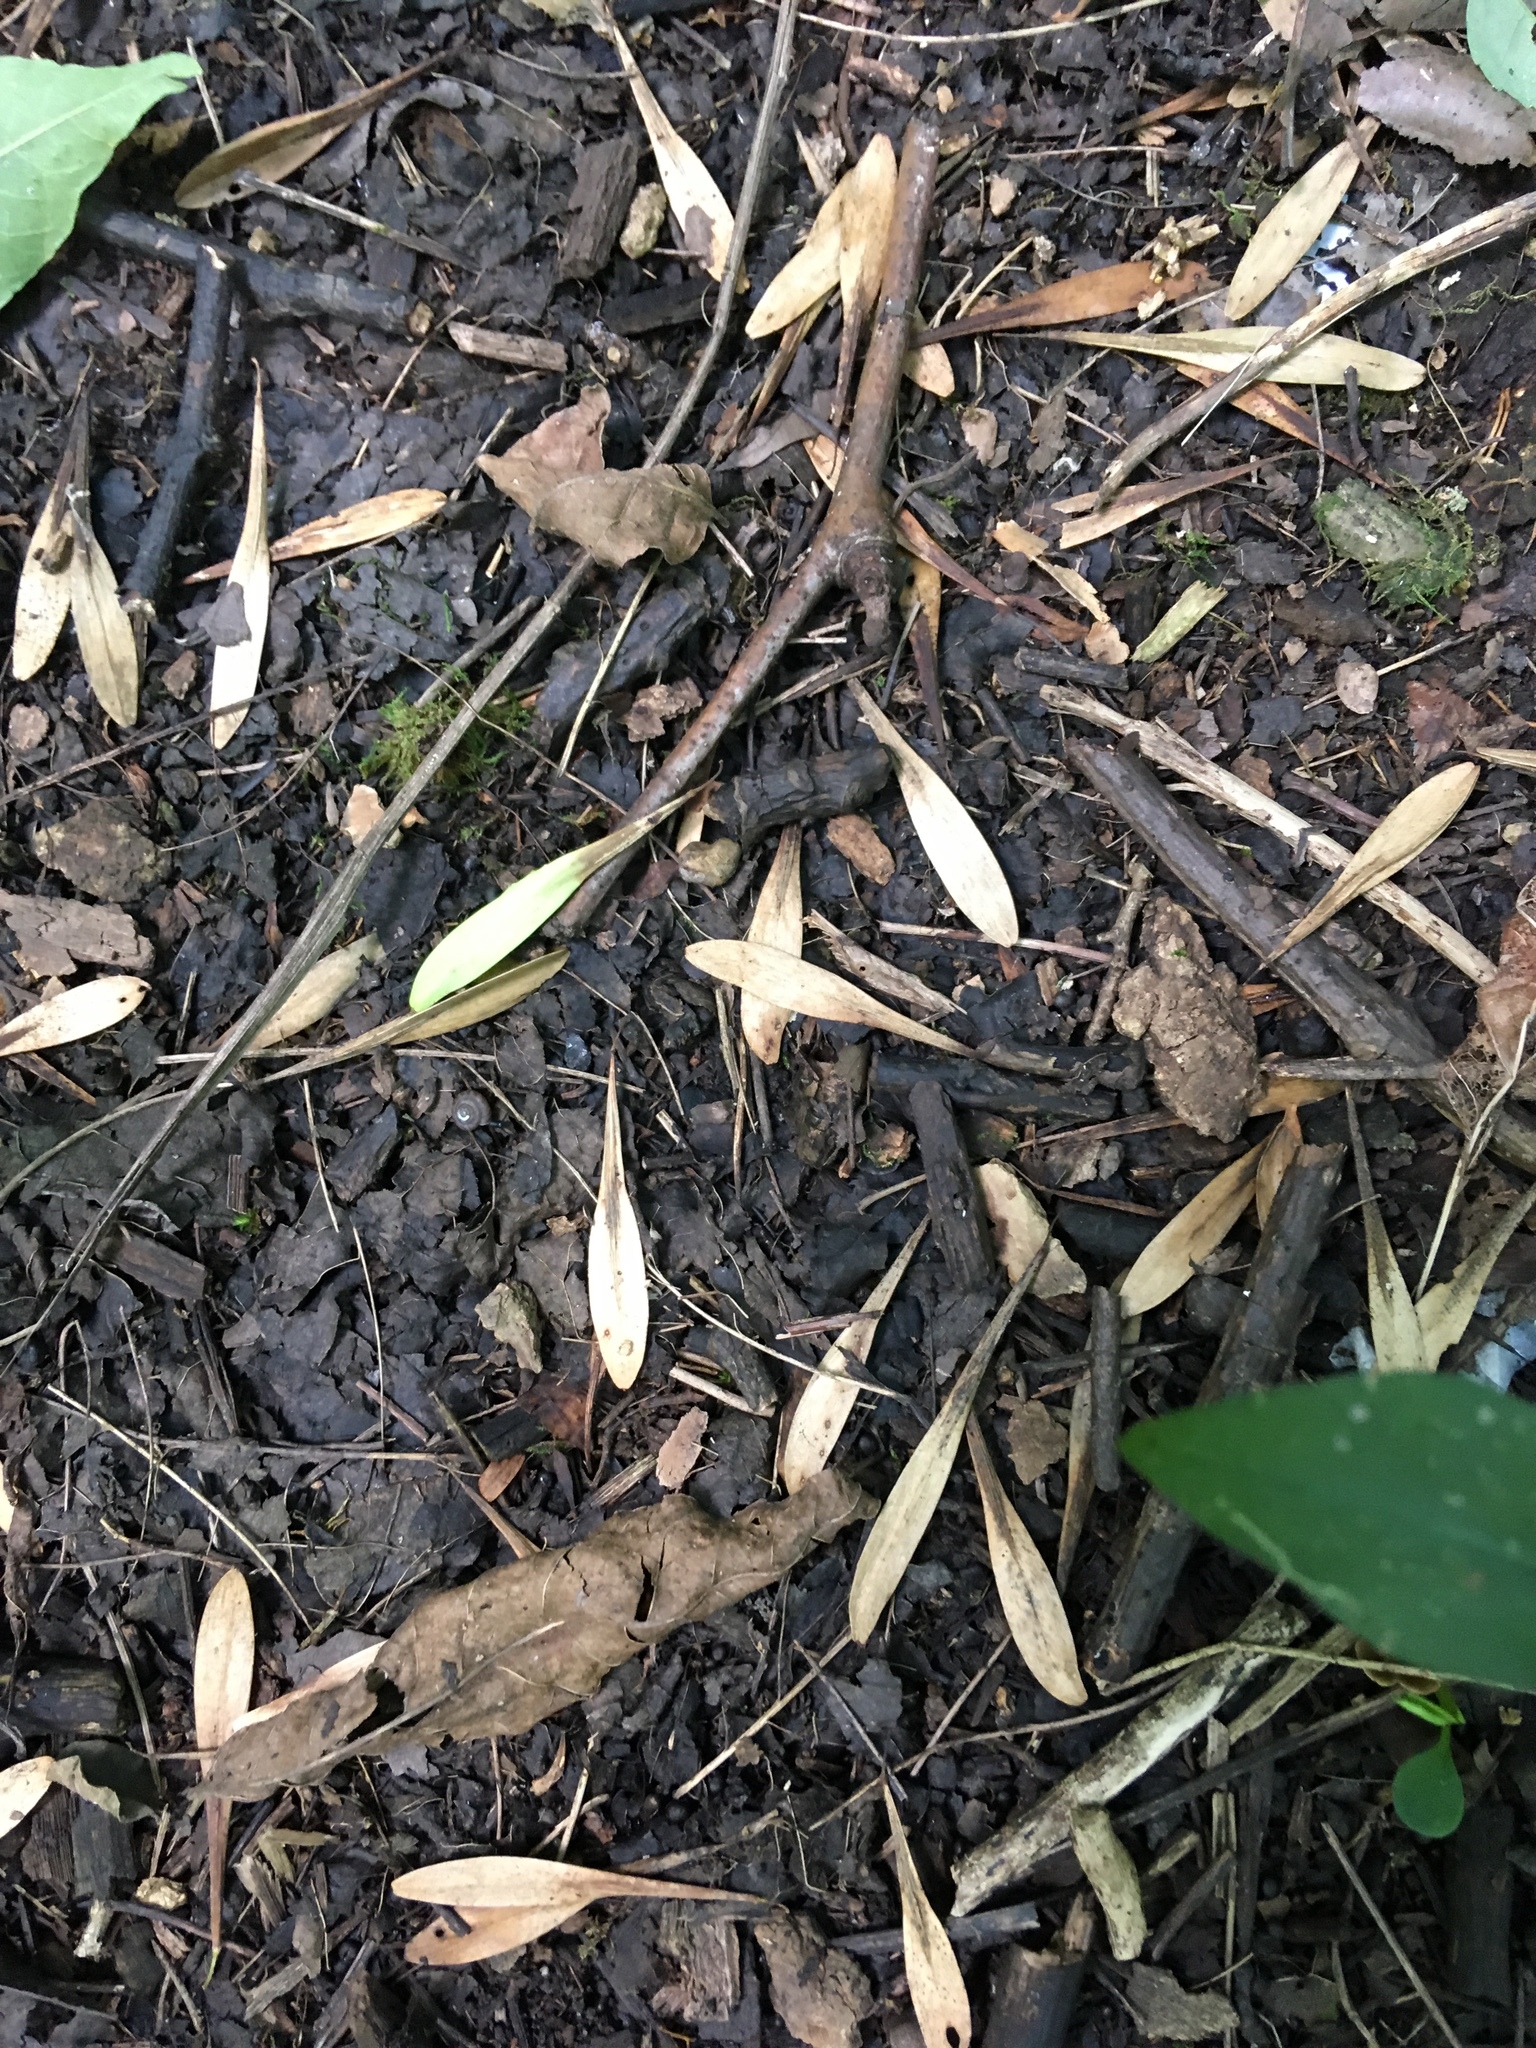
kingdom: Plantae
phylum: Tracheophyta
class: Magnoliopsida
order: Lamiales
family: Oleaceae
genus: Fraxinus
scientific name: Fraxinus pennsylvanica
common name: Green ash
